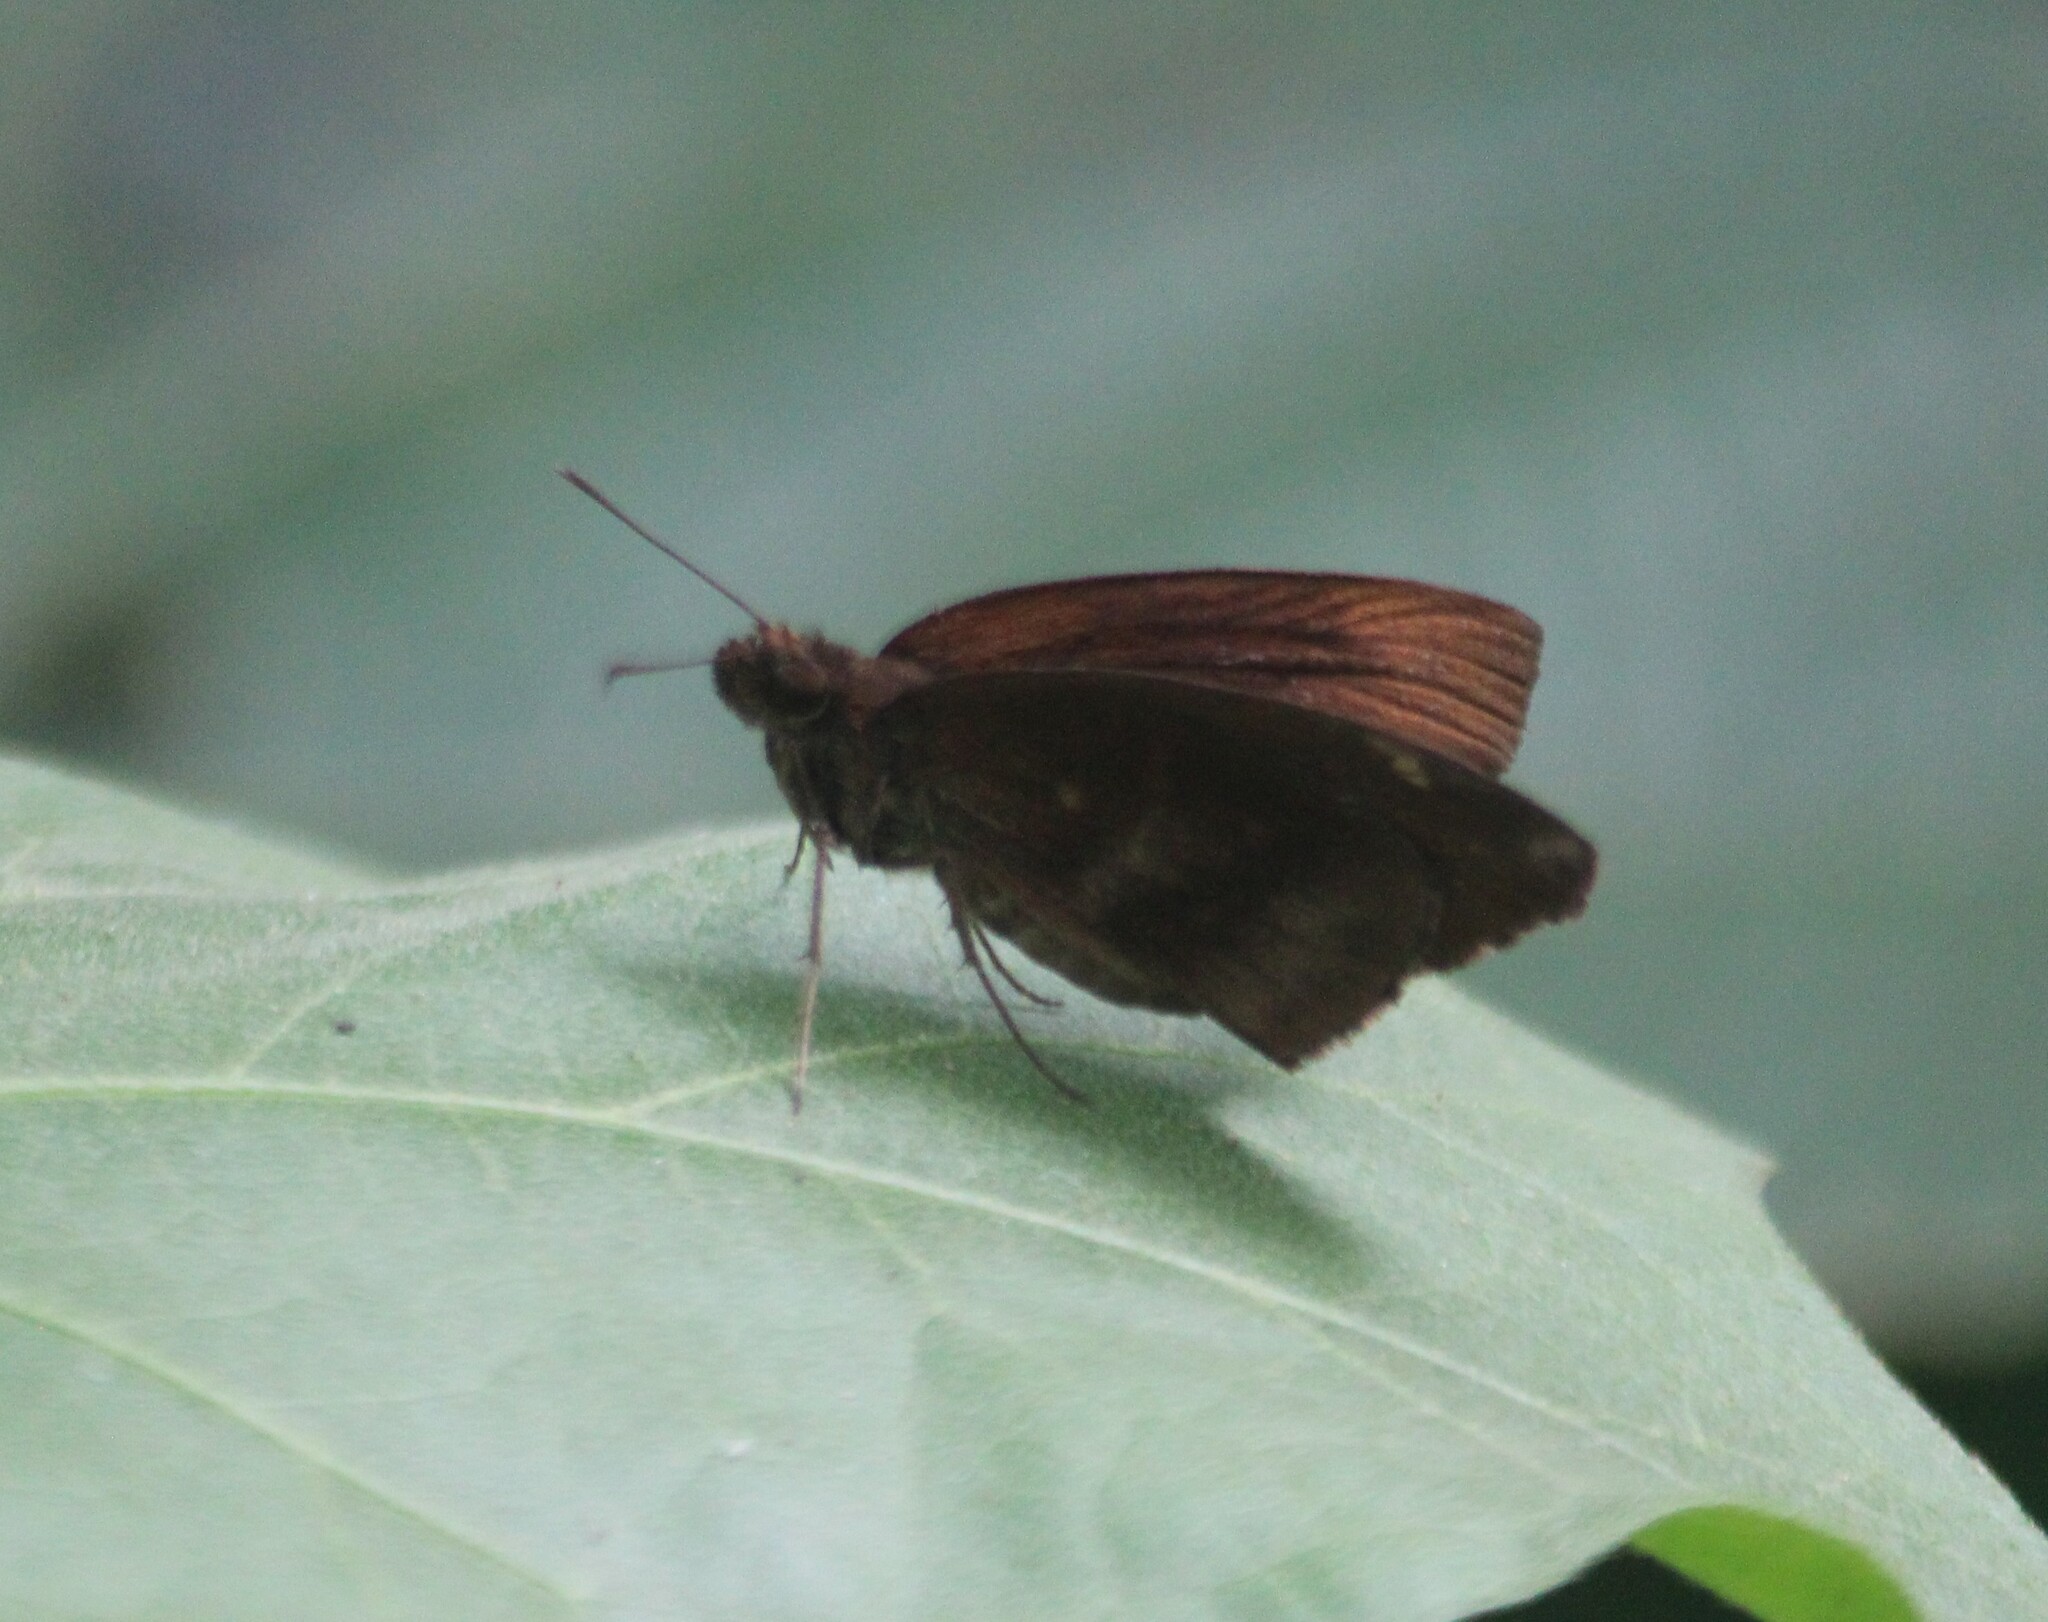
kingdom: Animalia
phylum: Arthropoda
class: Insecta
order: Lepidoptera
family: Hesperiidae
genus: Psolos
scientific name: Psolos fuligo
